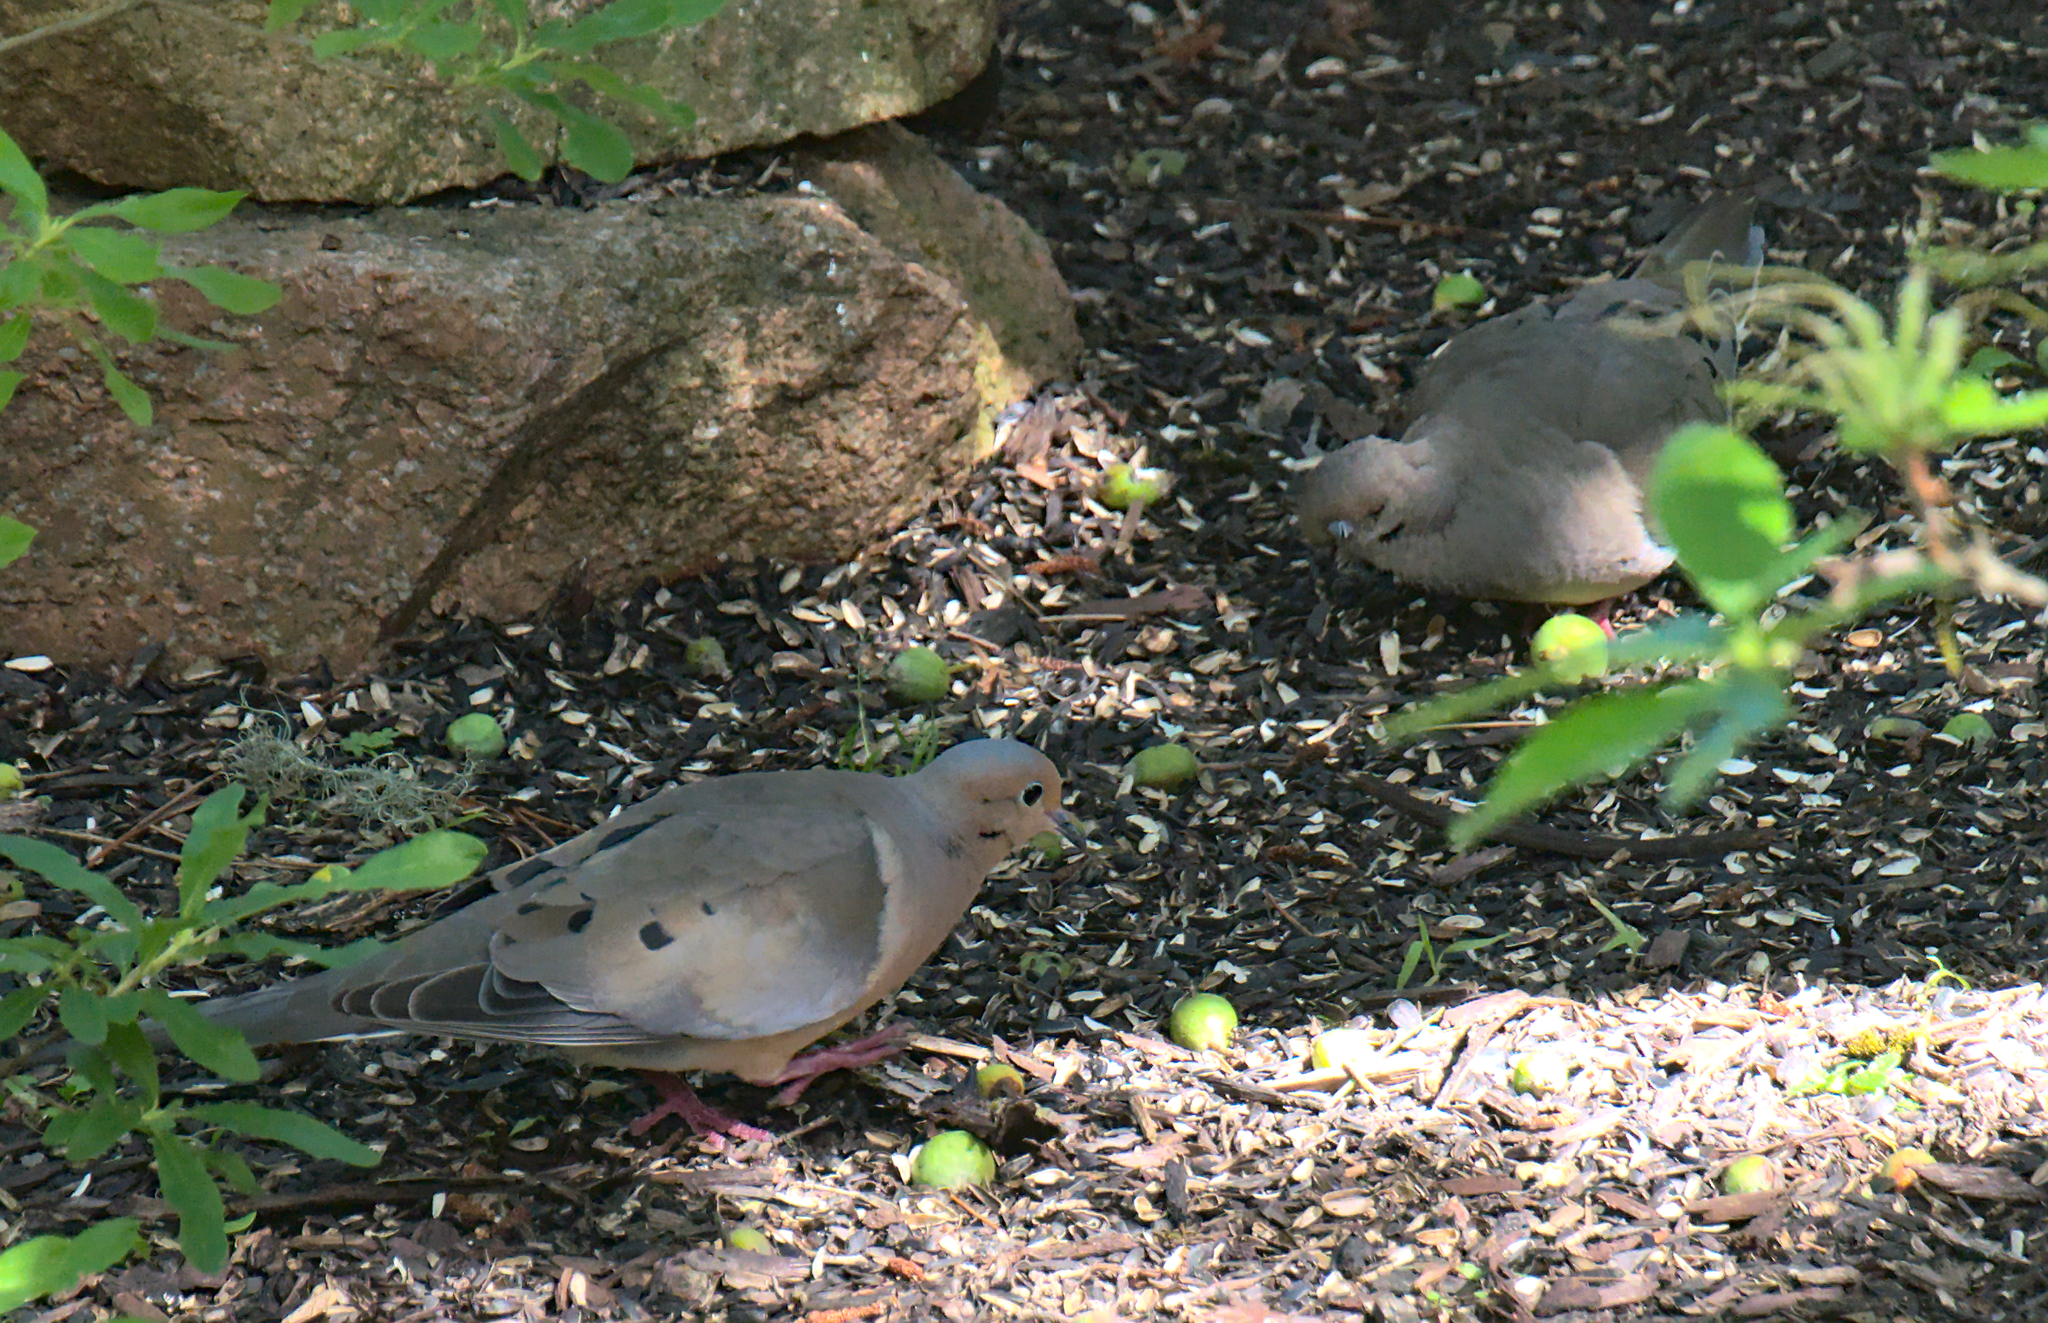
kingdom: Animalia
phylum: Chordata
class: Aves
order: Columbiformes
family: Columbidae
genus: Zenaida
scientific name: Zenaida macroura
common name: Mourning dove
